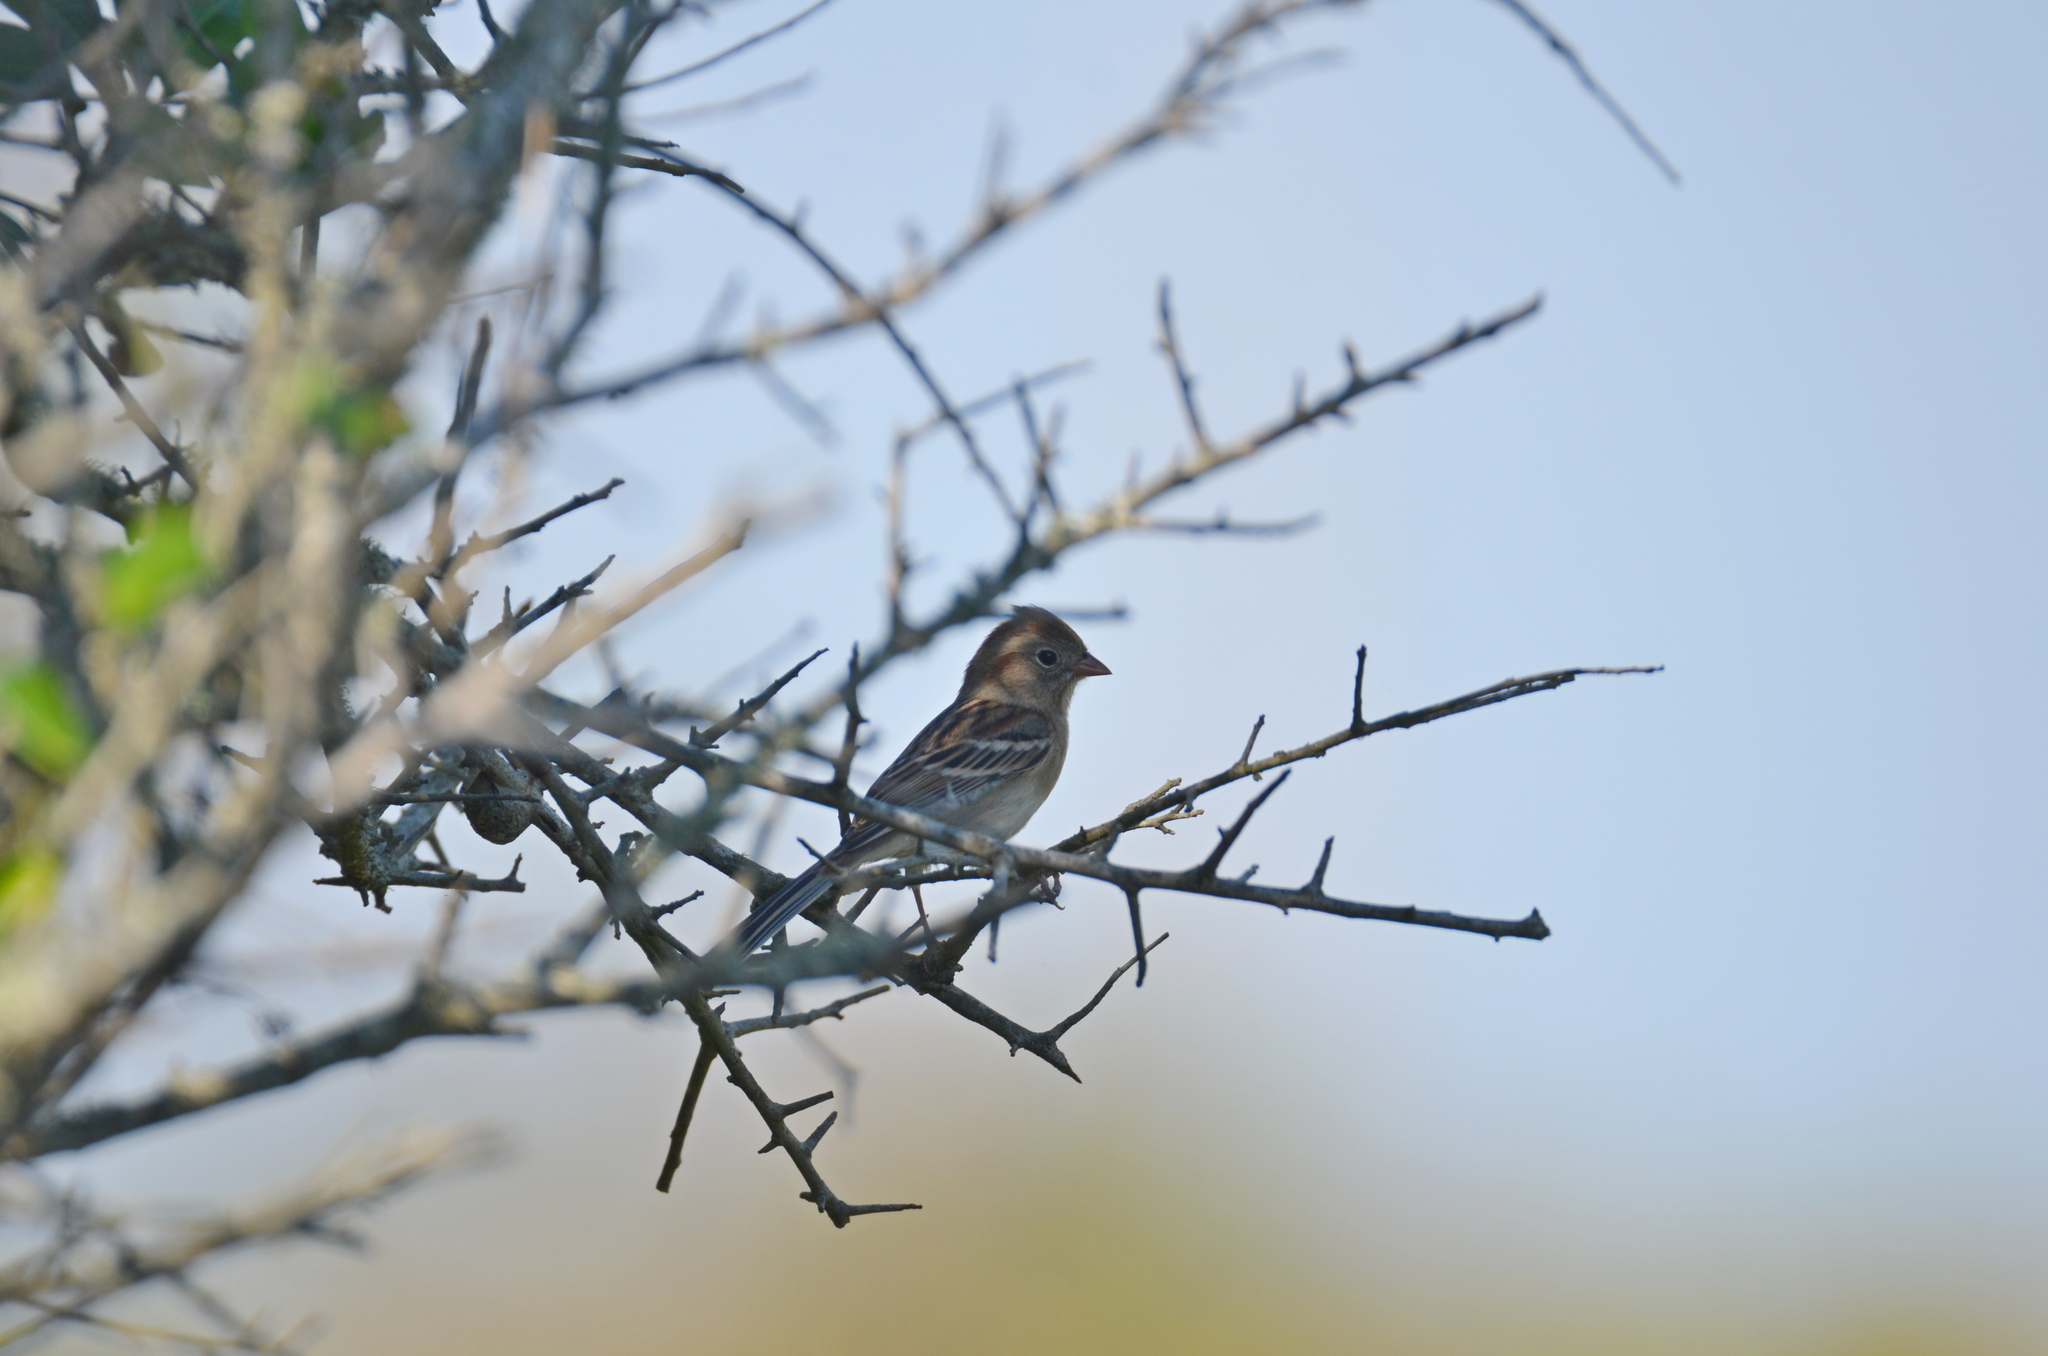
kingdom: Animalia
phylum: Chordata
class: Aves
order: Passeriformes
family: Passerellidae
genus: Spizella
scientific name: Spizella pusilla
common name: Field sparrow
